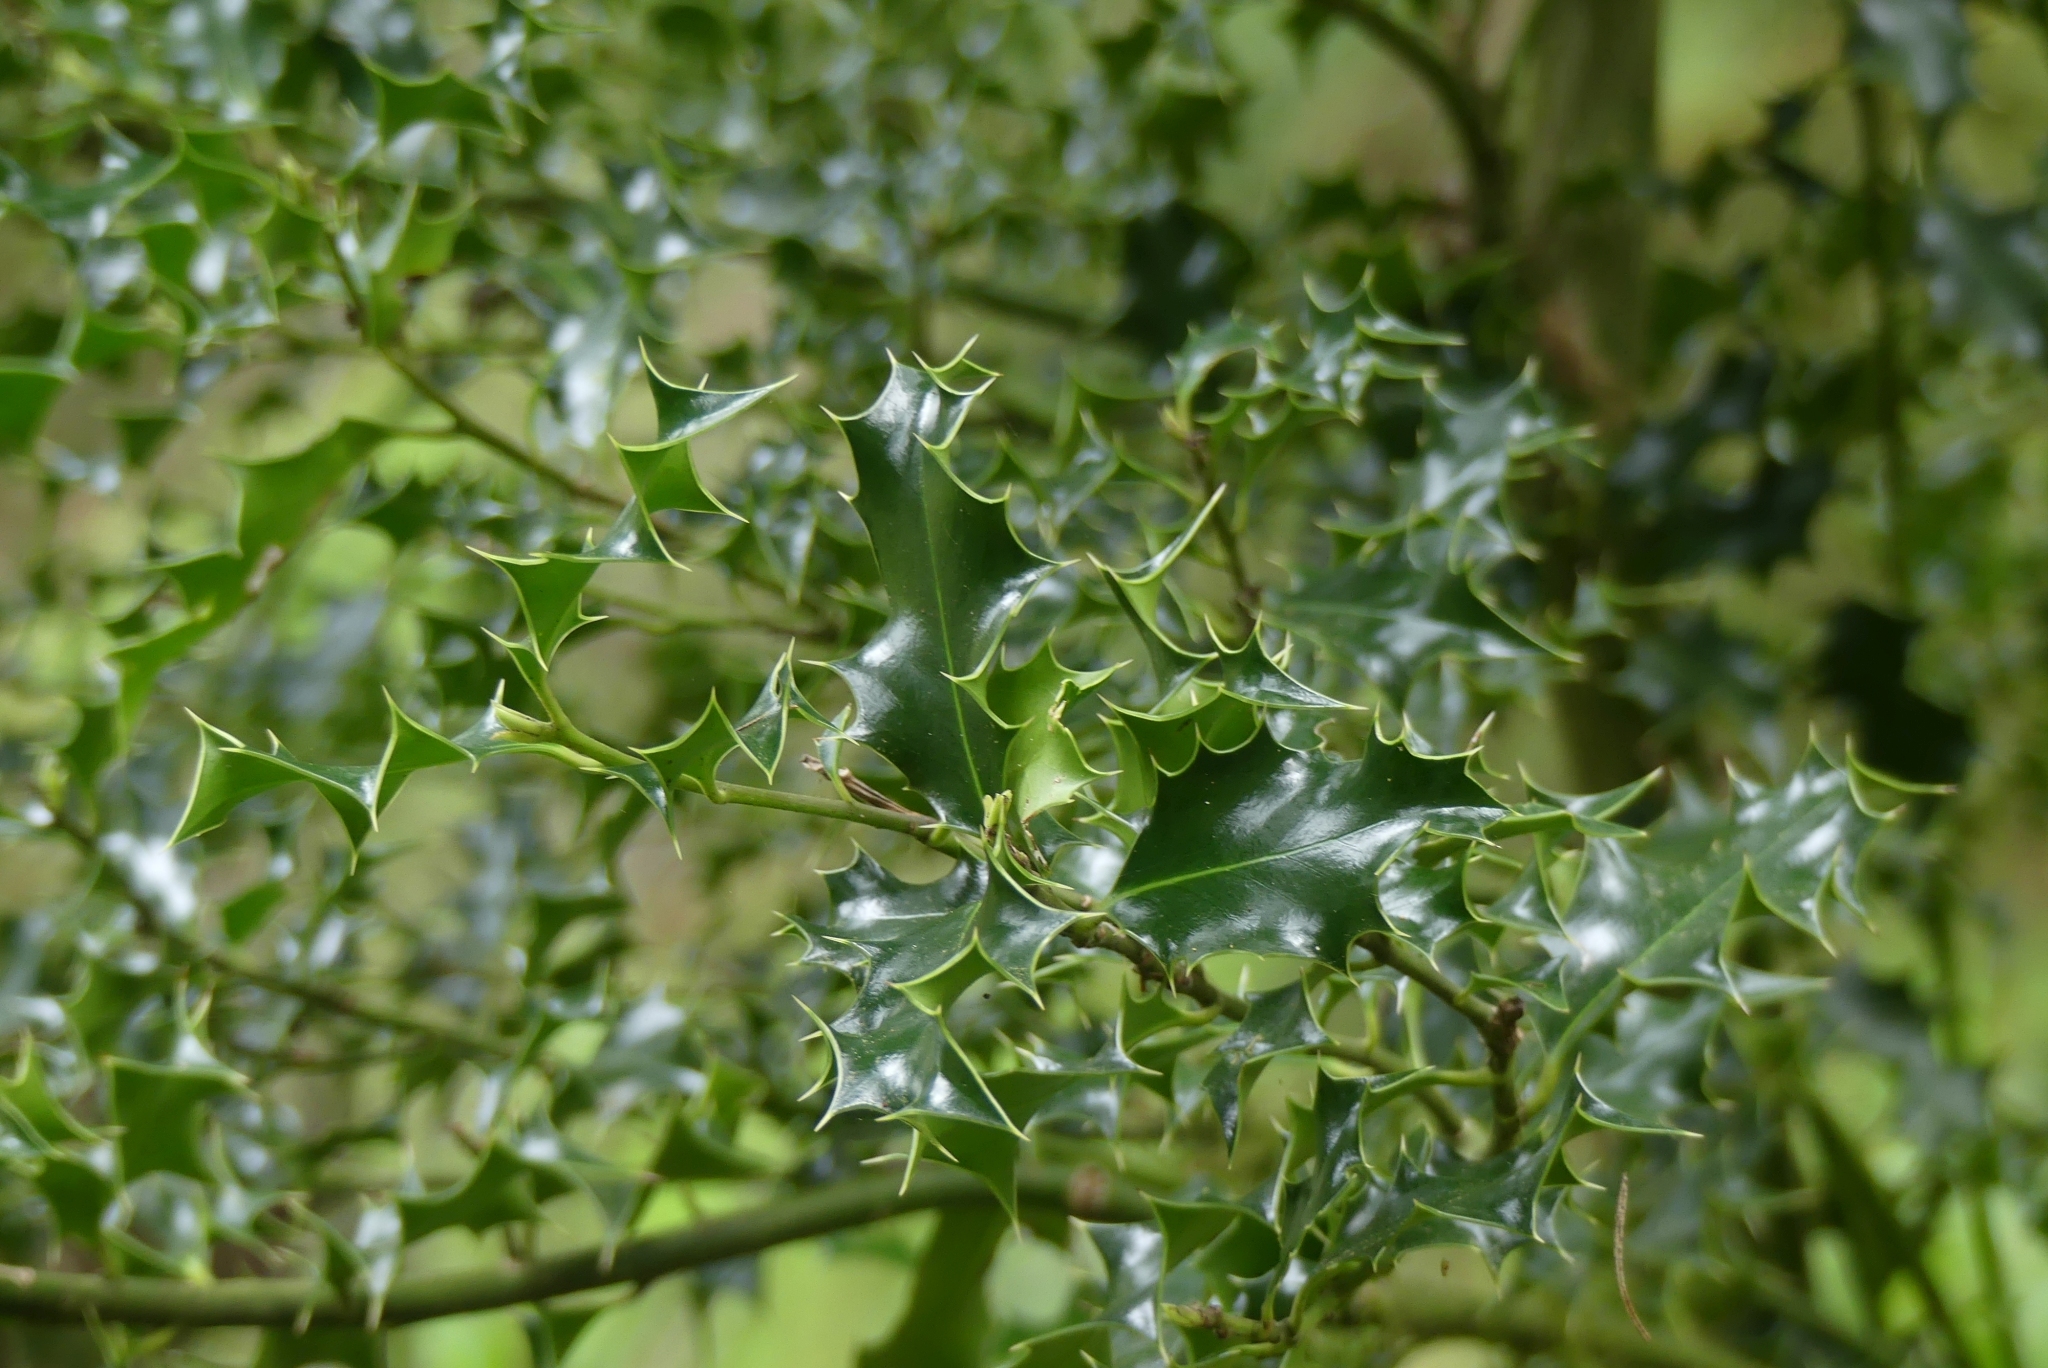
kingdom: Plantae
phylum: Tracheophyta
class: Magnoliopsida
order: Aquifoliales
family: Aquifoliaceae
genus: Ilex
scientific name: Ilex aquifolium
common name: English holly
